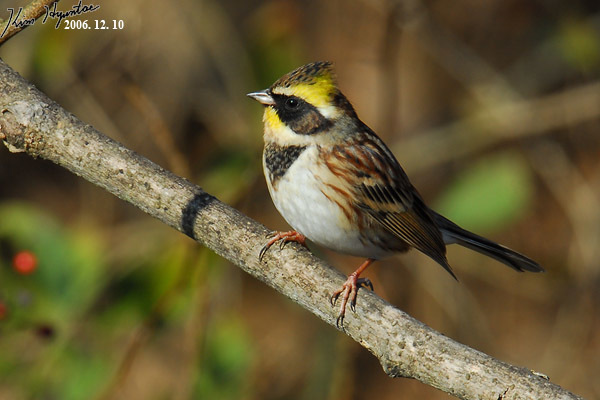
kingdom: Animalia
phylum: Chordata
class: Aves
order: Passeriformes
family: Emberizidae
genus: Emberiza
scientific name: Emberiza elegans
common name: Yellow-throated bunting
